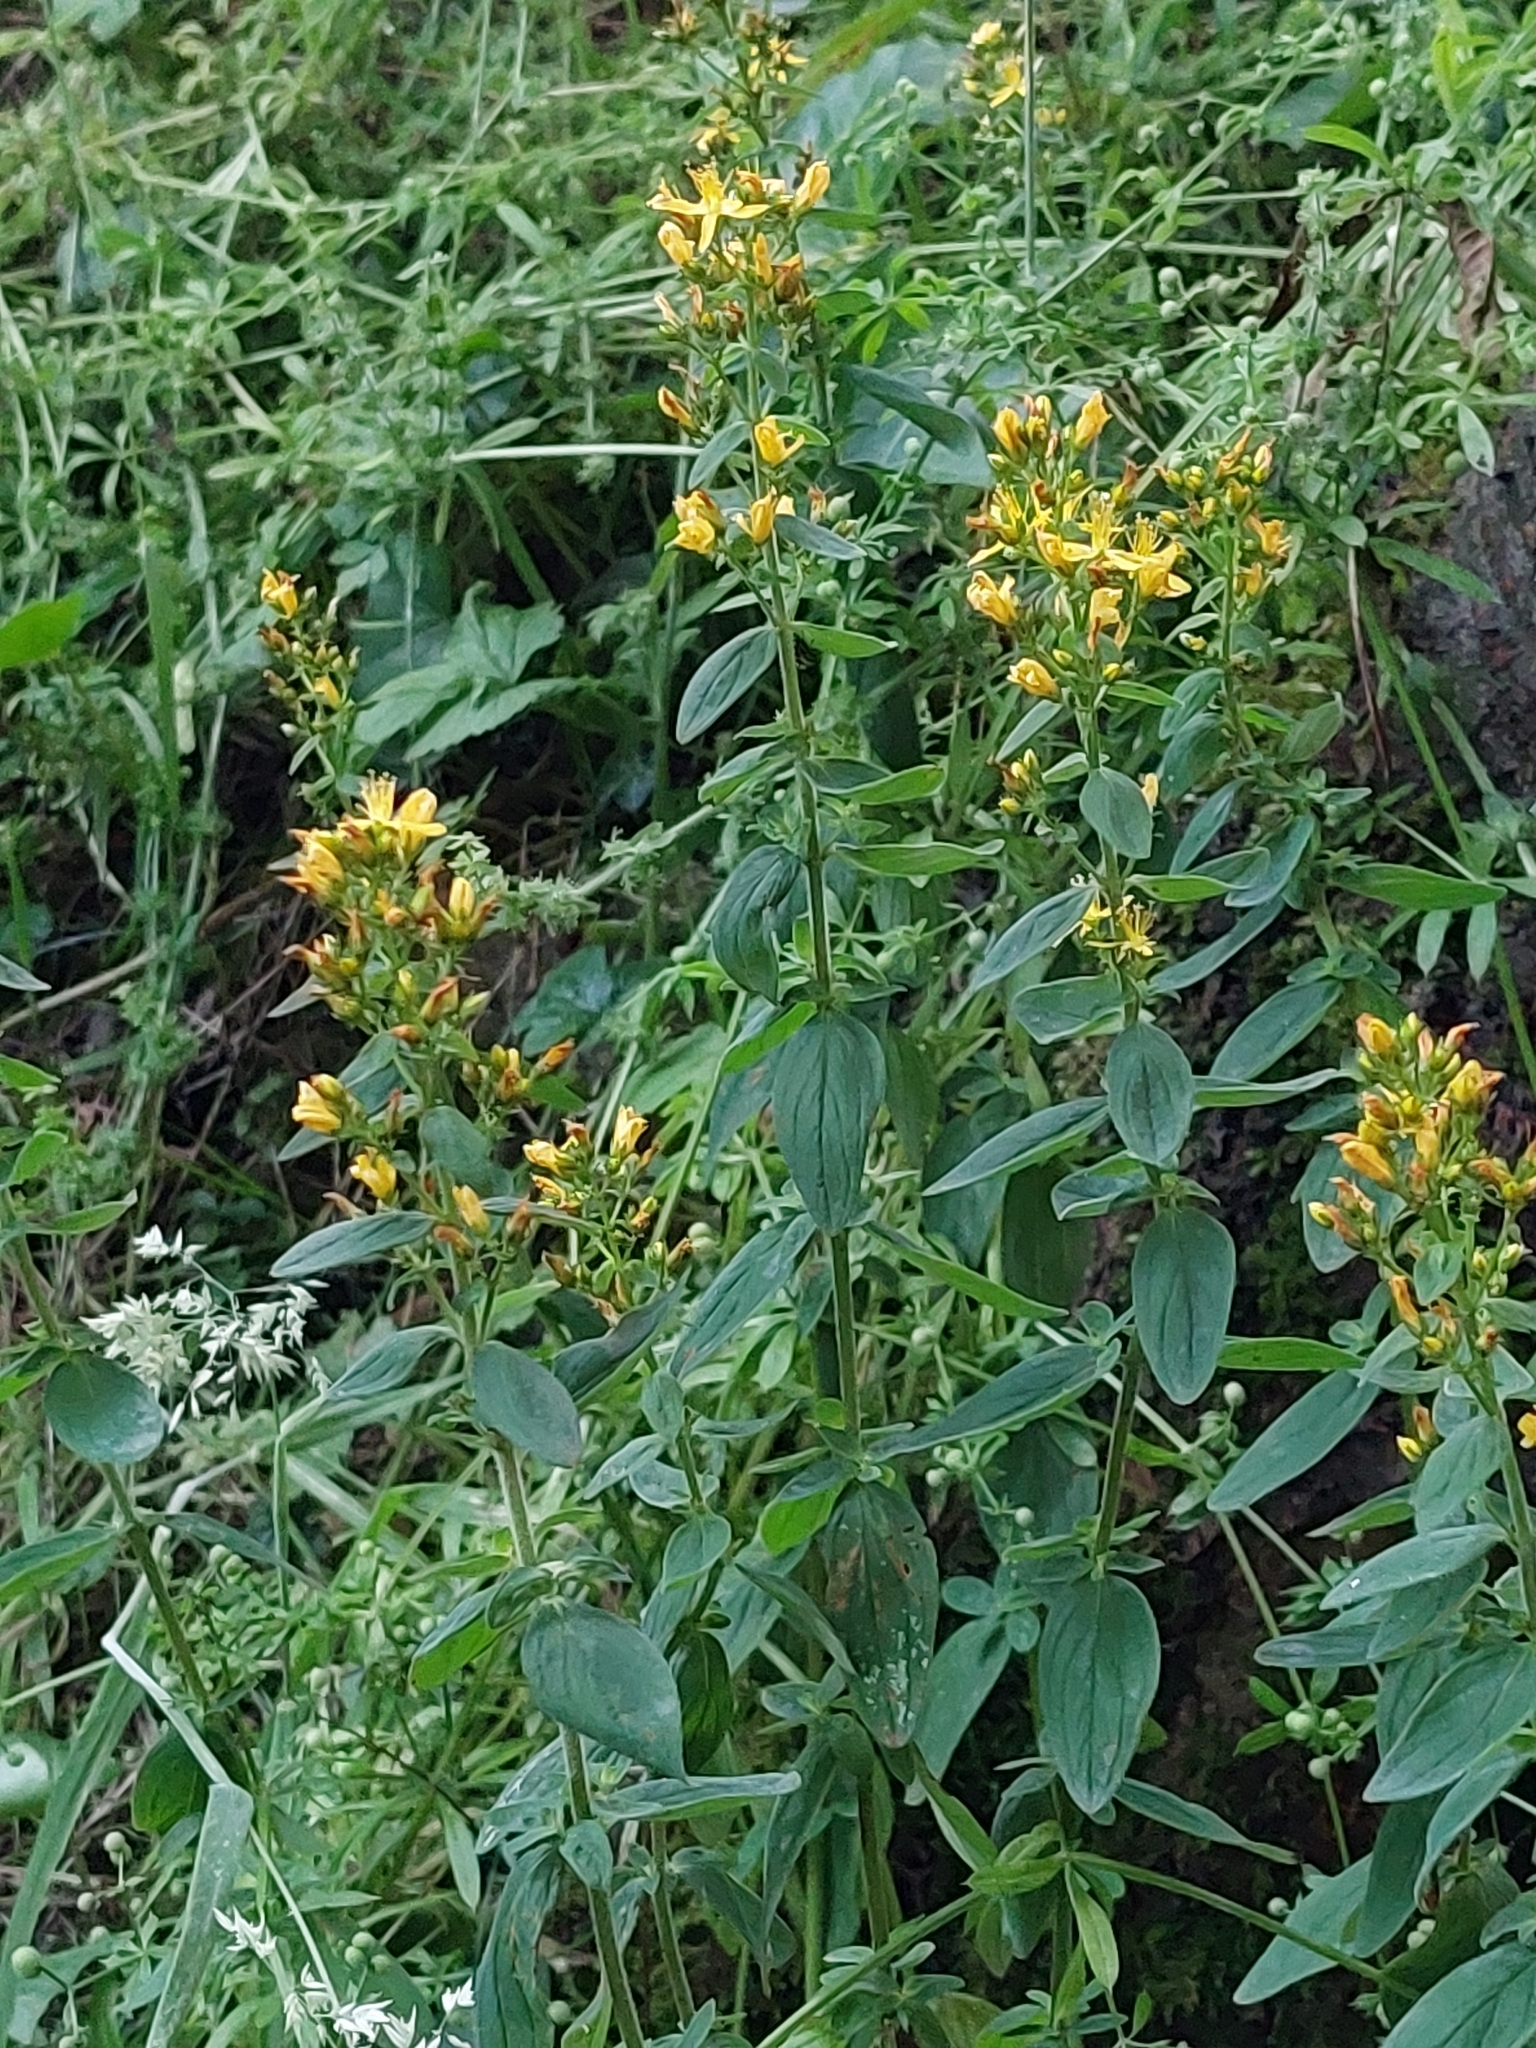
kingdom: Plantae
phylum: Tracheophyta
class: Magnoliopsida
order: Malpighiales
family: Hypericaceae
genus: Hypericum
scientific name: Hypericum hirsutum
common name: Hairy st. john's-wort
